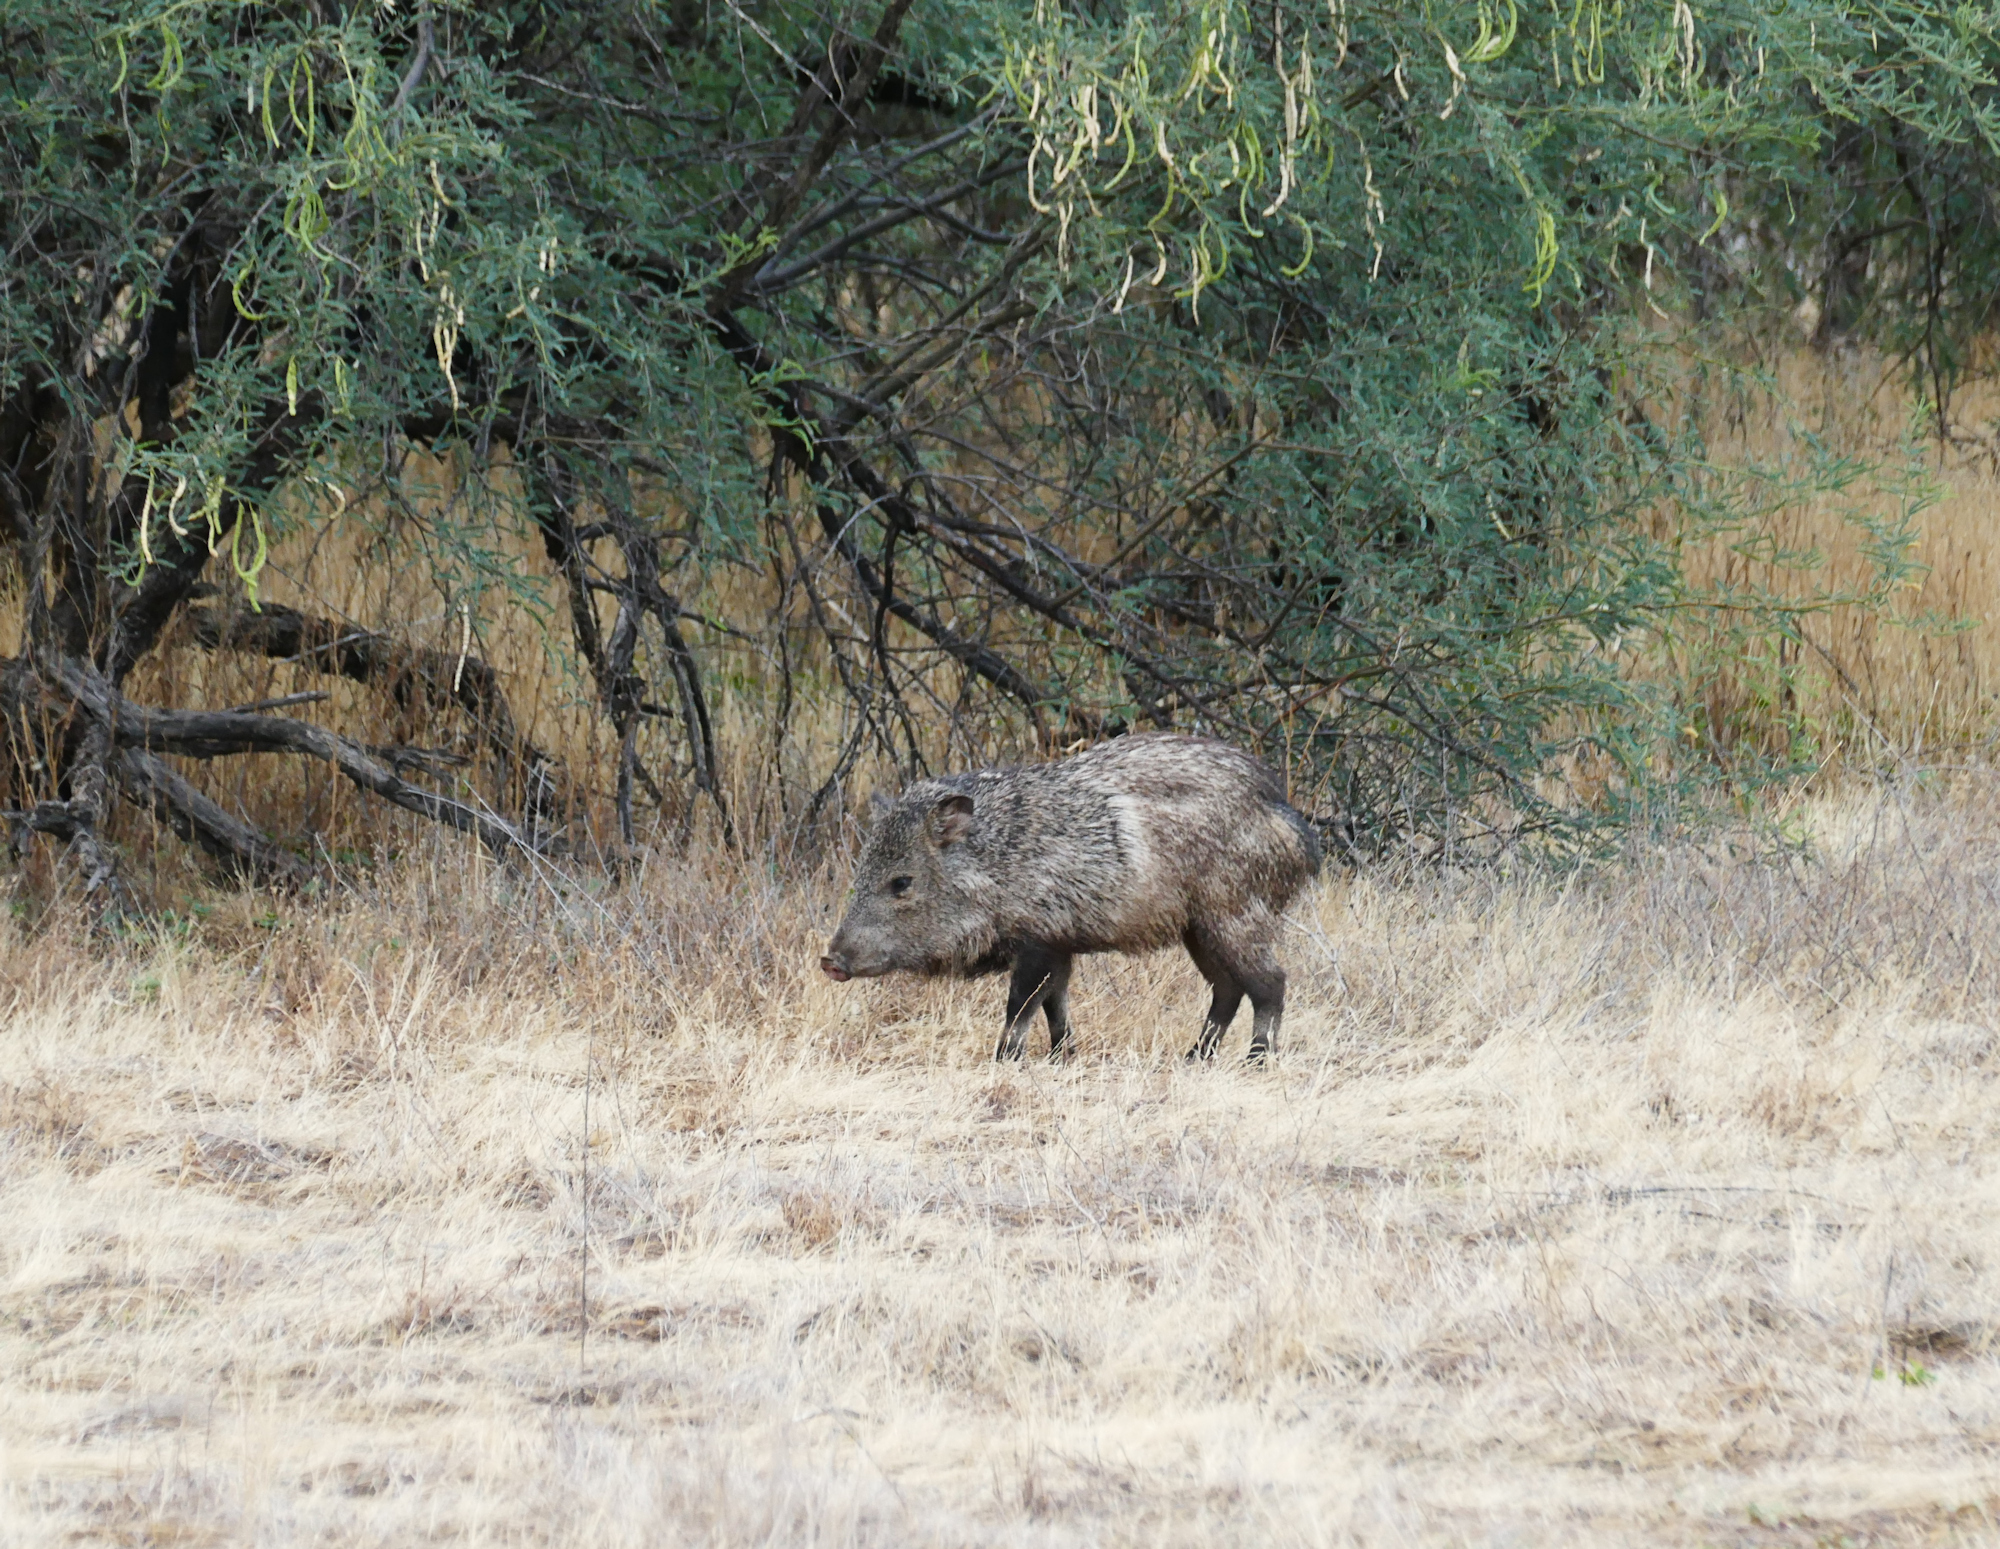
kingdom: Animalia
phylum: Chordata
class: Mammalia
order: Artiodactyla
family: Tayassuidae
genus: Pecari
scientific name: Pecari tajacu
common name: Collared peccary
